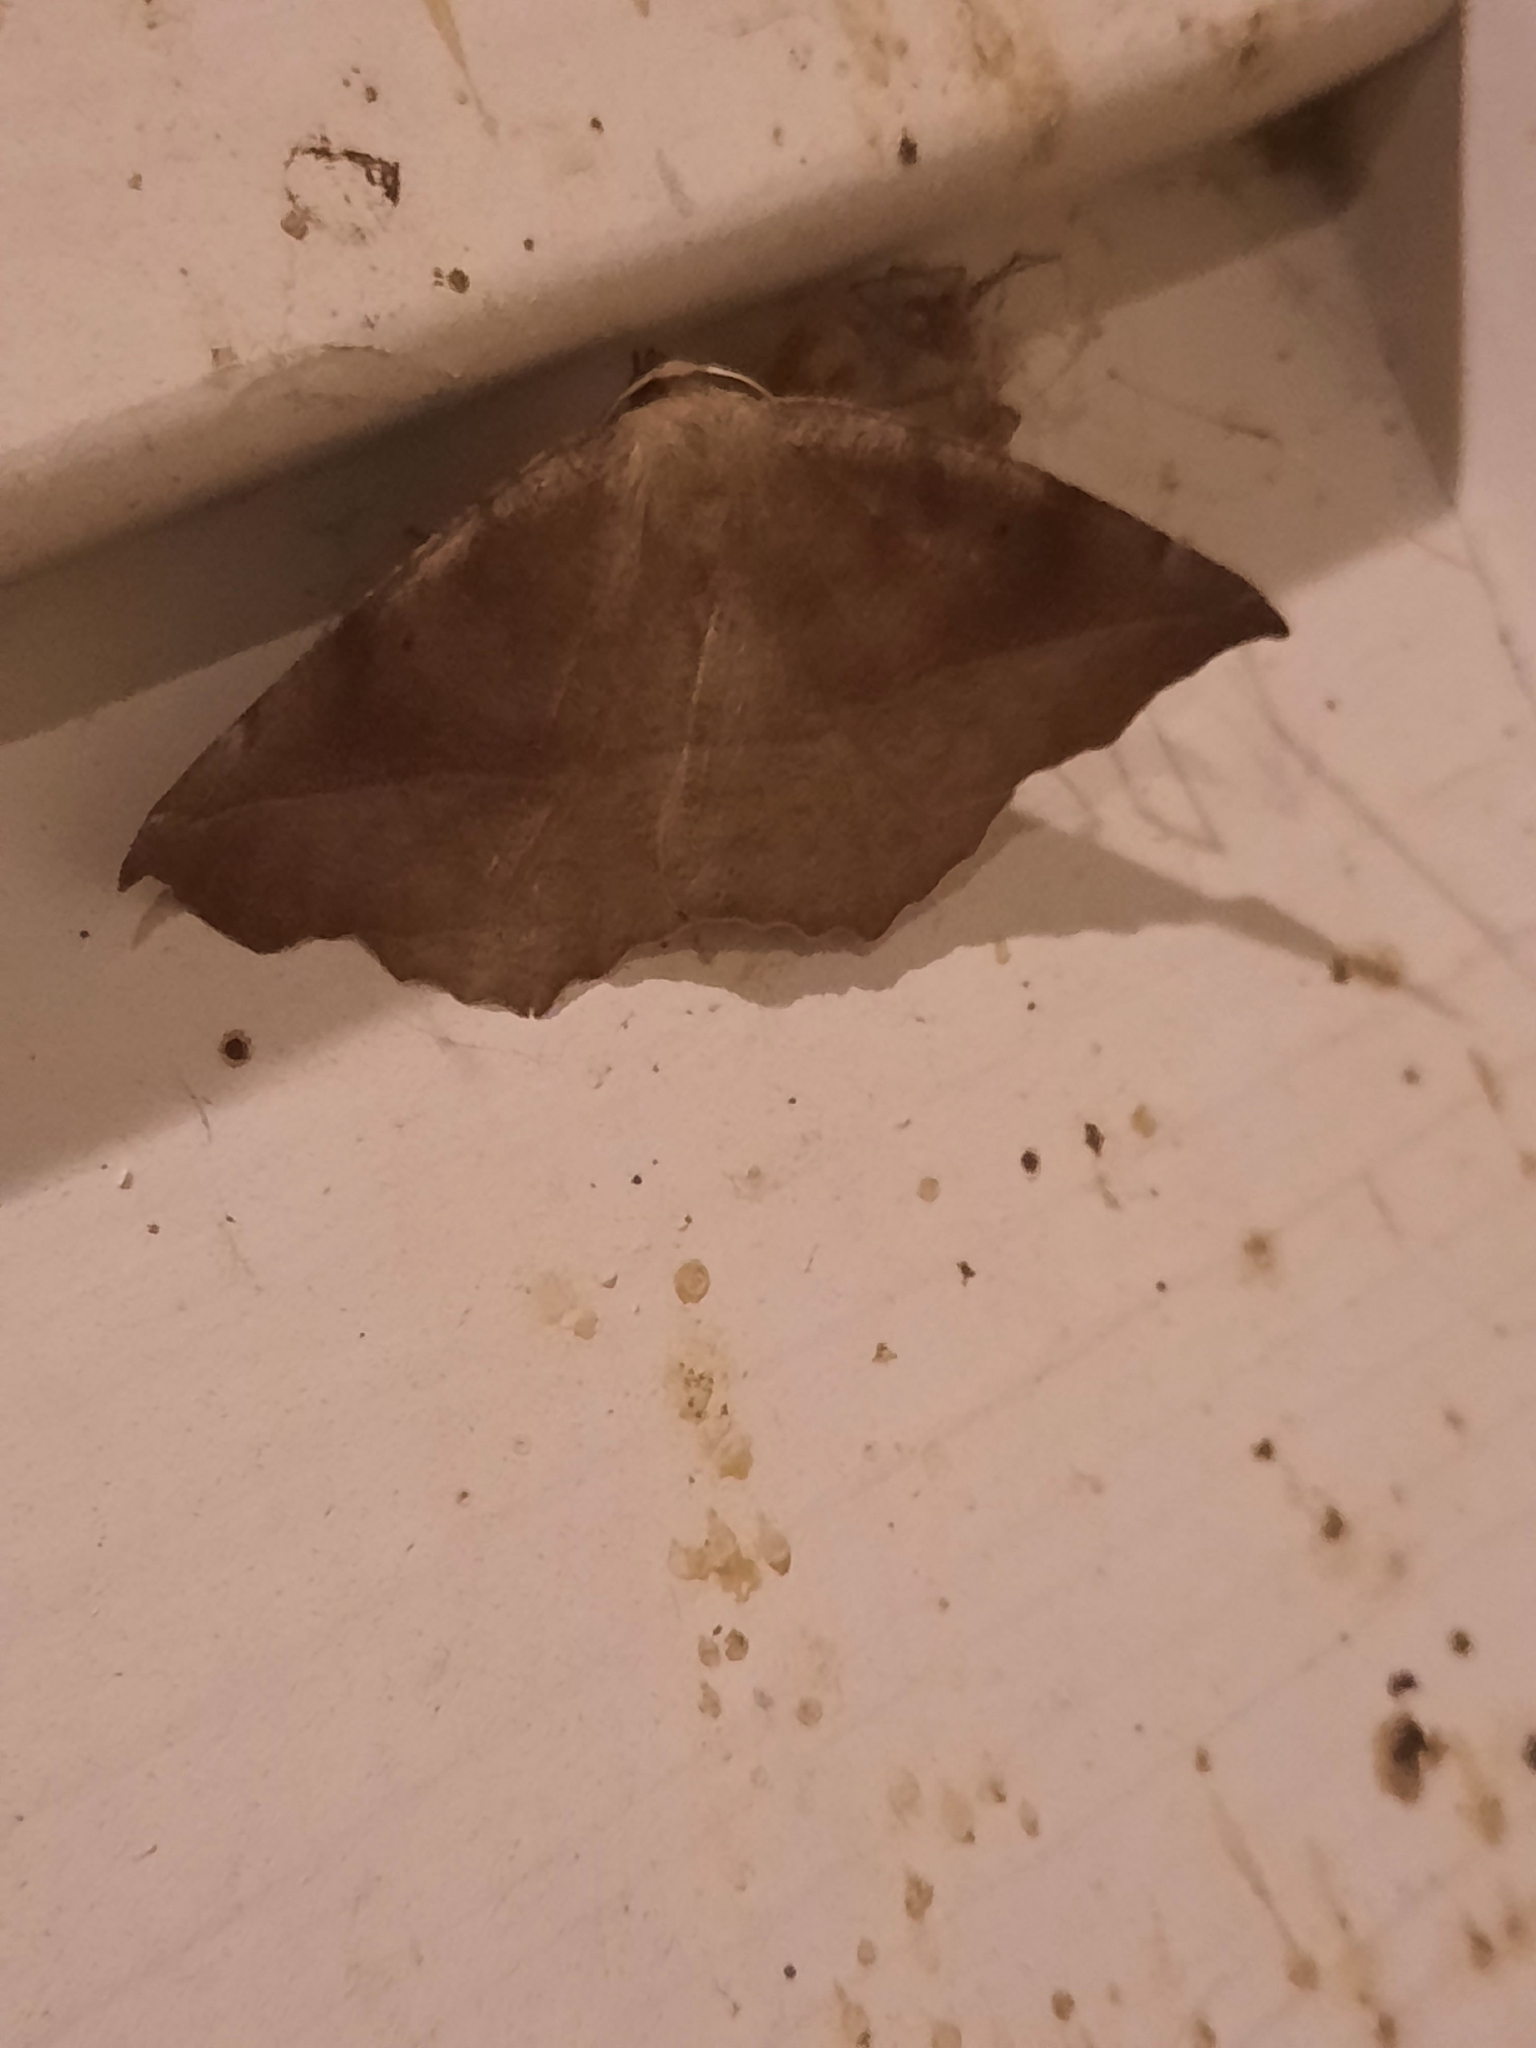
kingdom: Animalia
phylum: Arthropoda
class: Insecta
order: Lepidoptera
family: Geometridae
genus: Eutrapela
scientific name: Eutrapela clemataria
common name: Curved-toothed geometer
